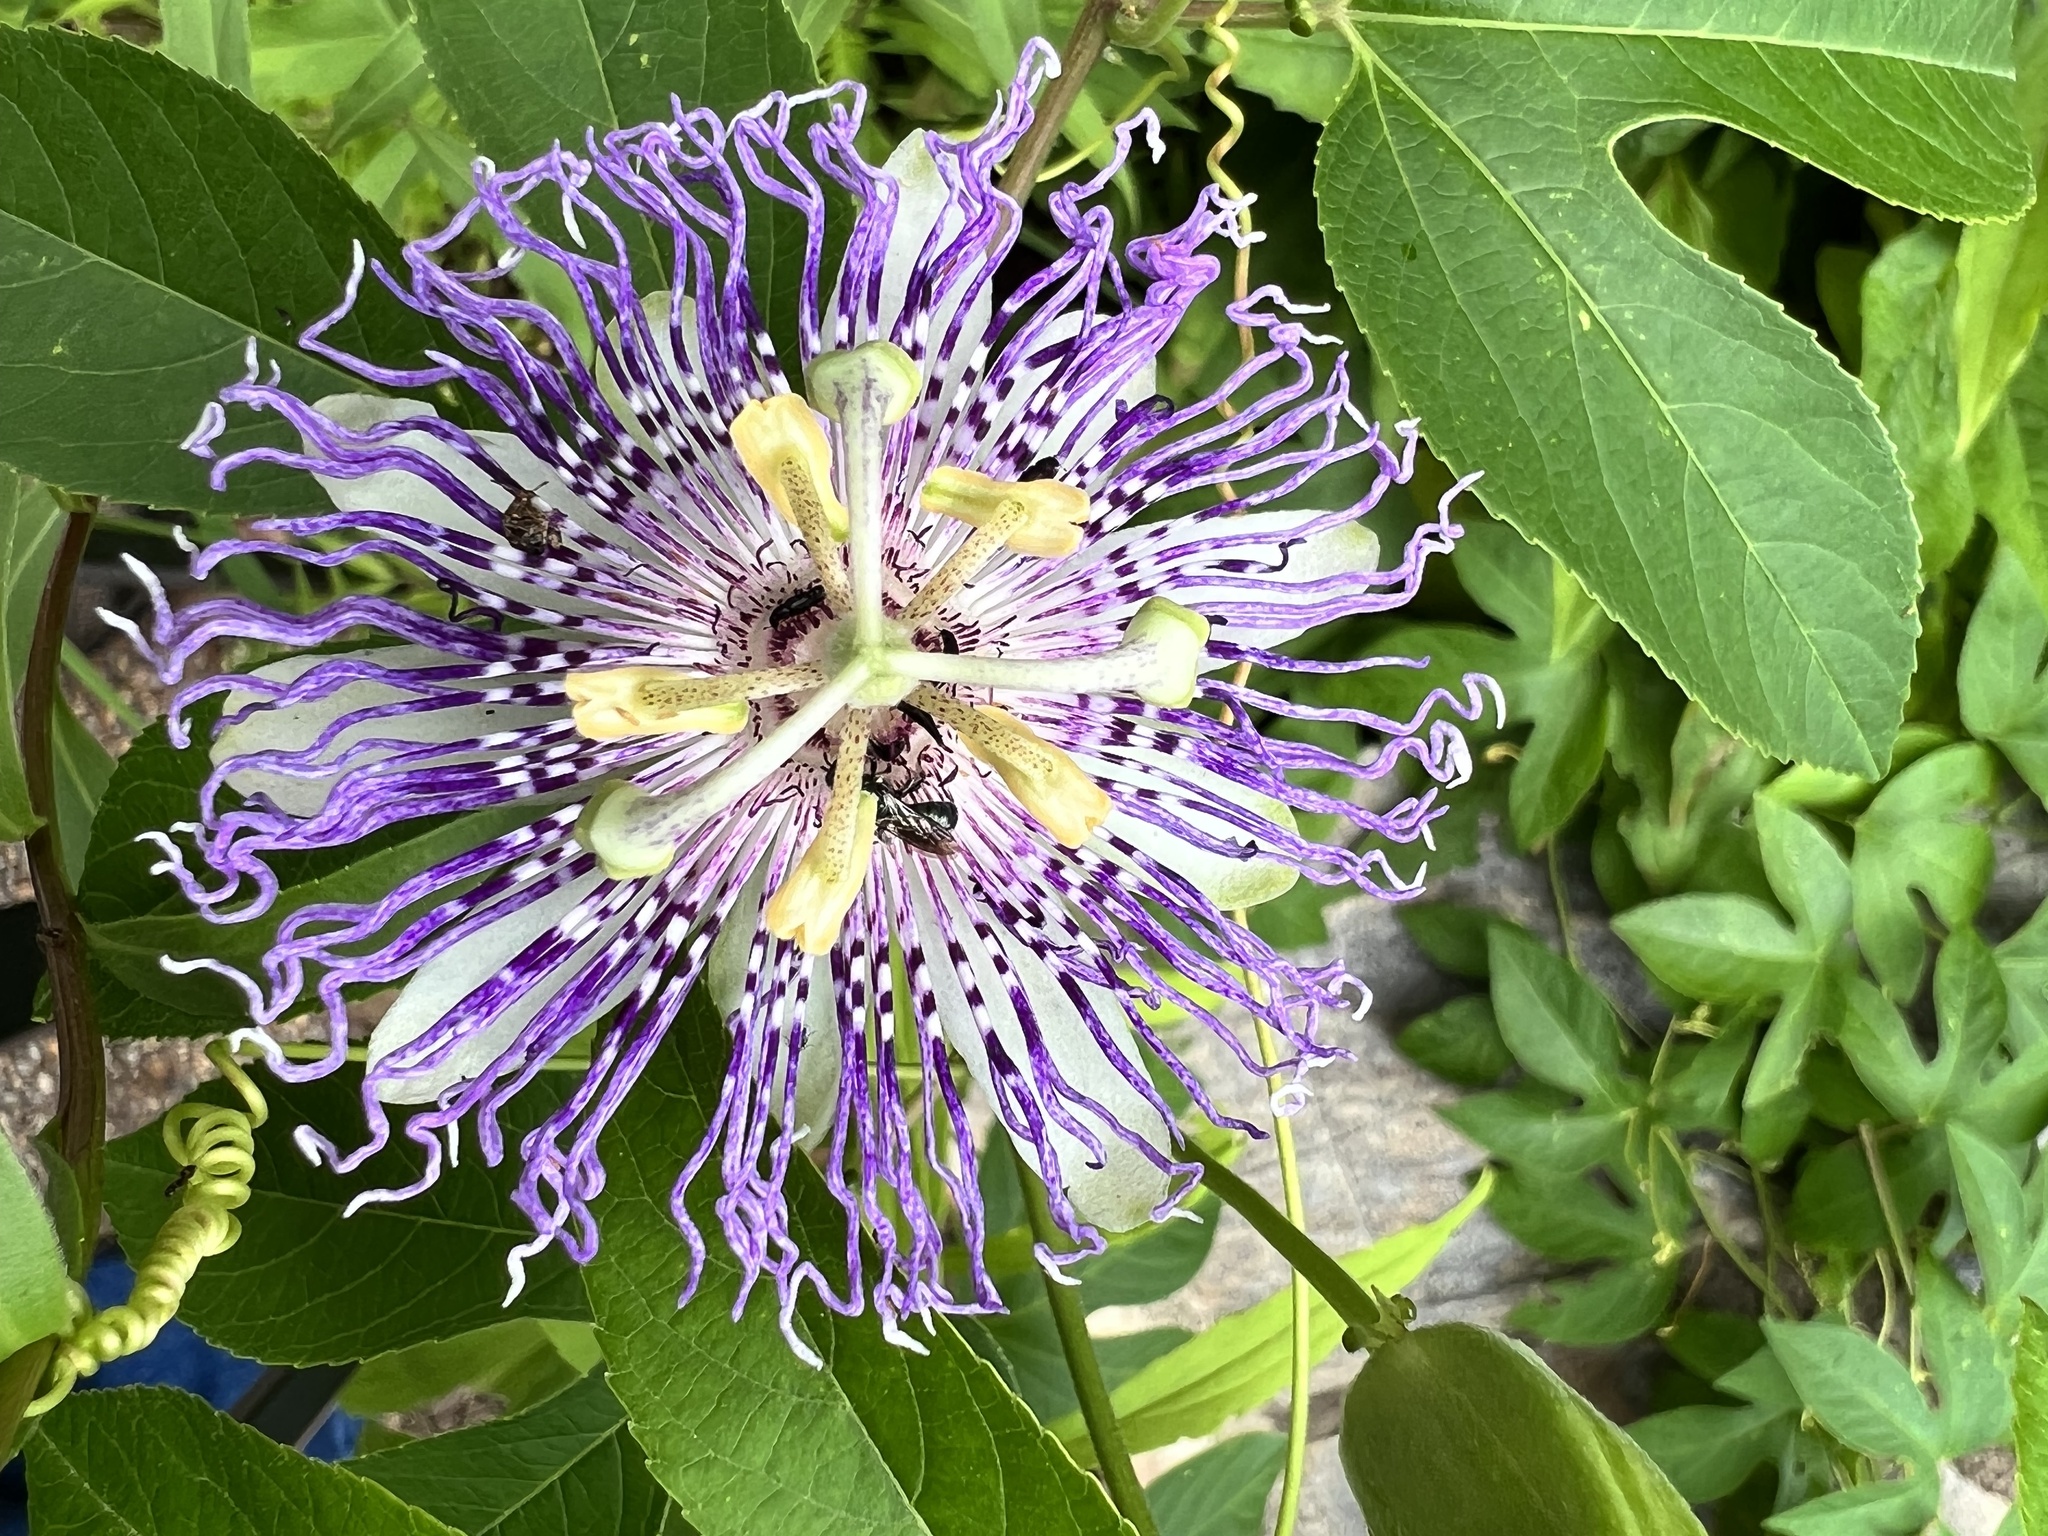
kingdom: Plantae
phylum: Tracheophyta
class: Magnoliopsida
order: Malpighiales
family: Passifloraceae
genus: Passiflora
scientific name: Passiflora incarnata
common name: Apricot-vine
